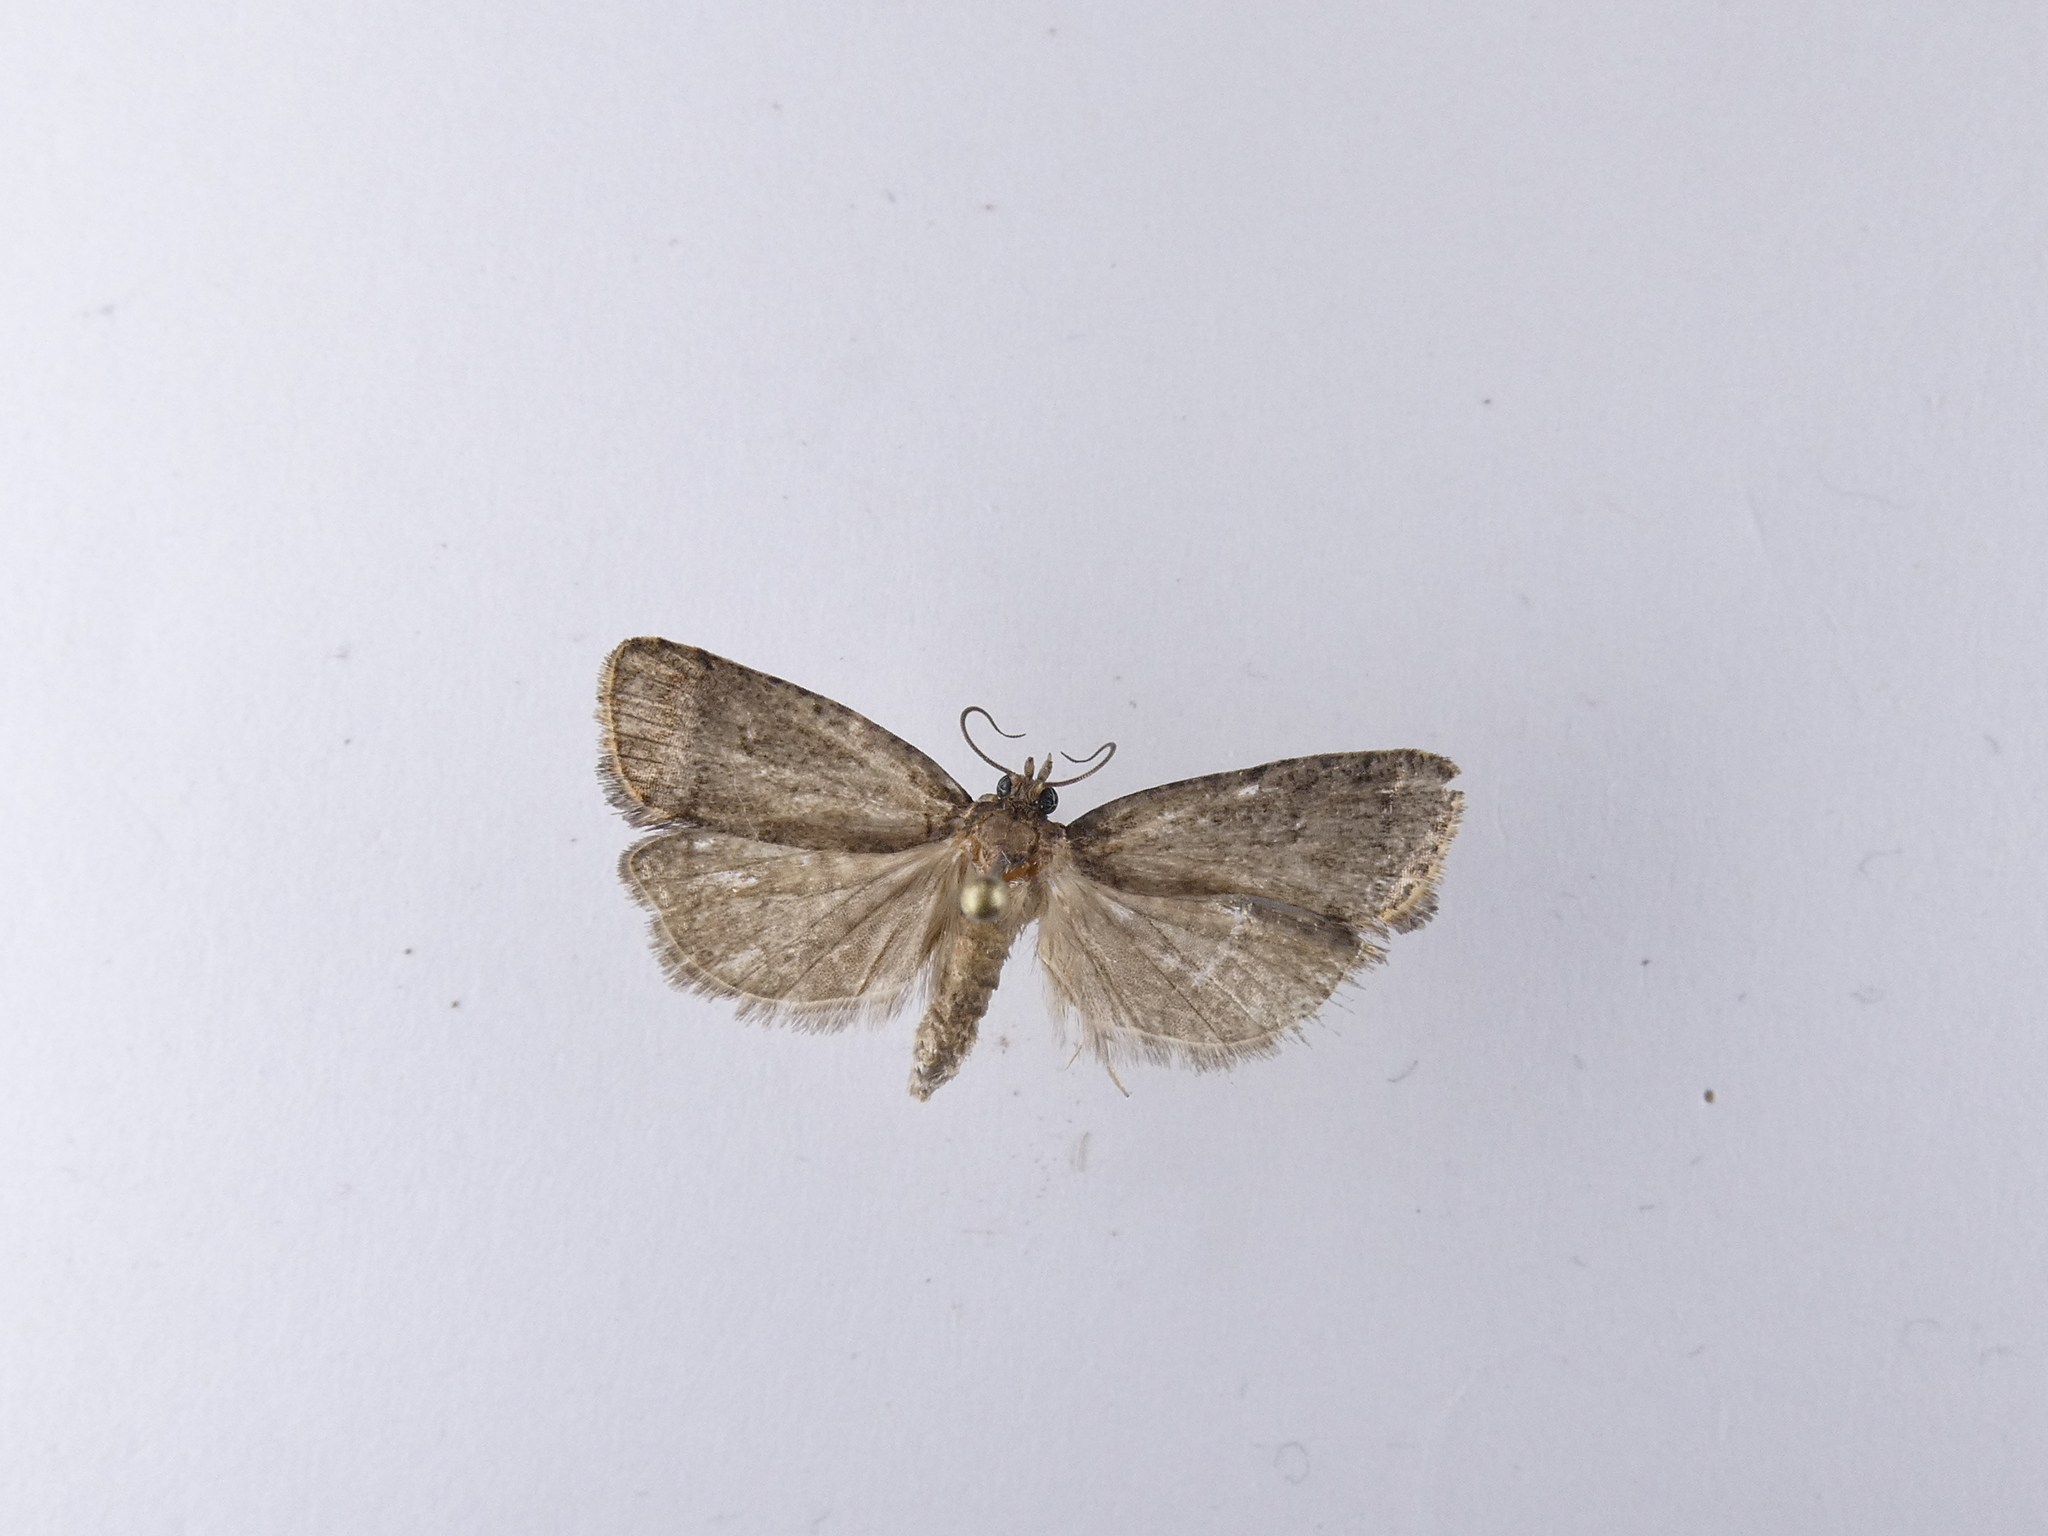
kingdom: Animalia
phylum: Arthropoda
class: Insecta
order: Lepidoptera
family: Tortricidae
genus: Cryptaspasma
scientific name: Cryptaspasma querula
